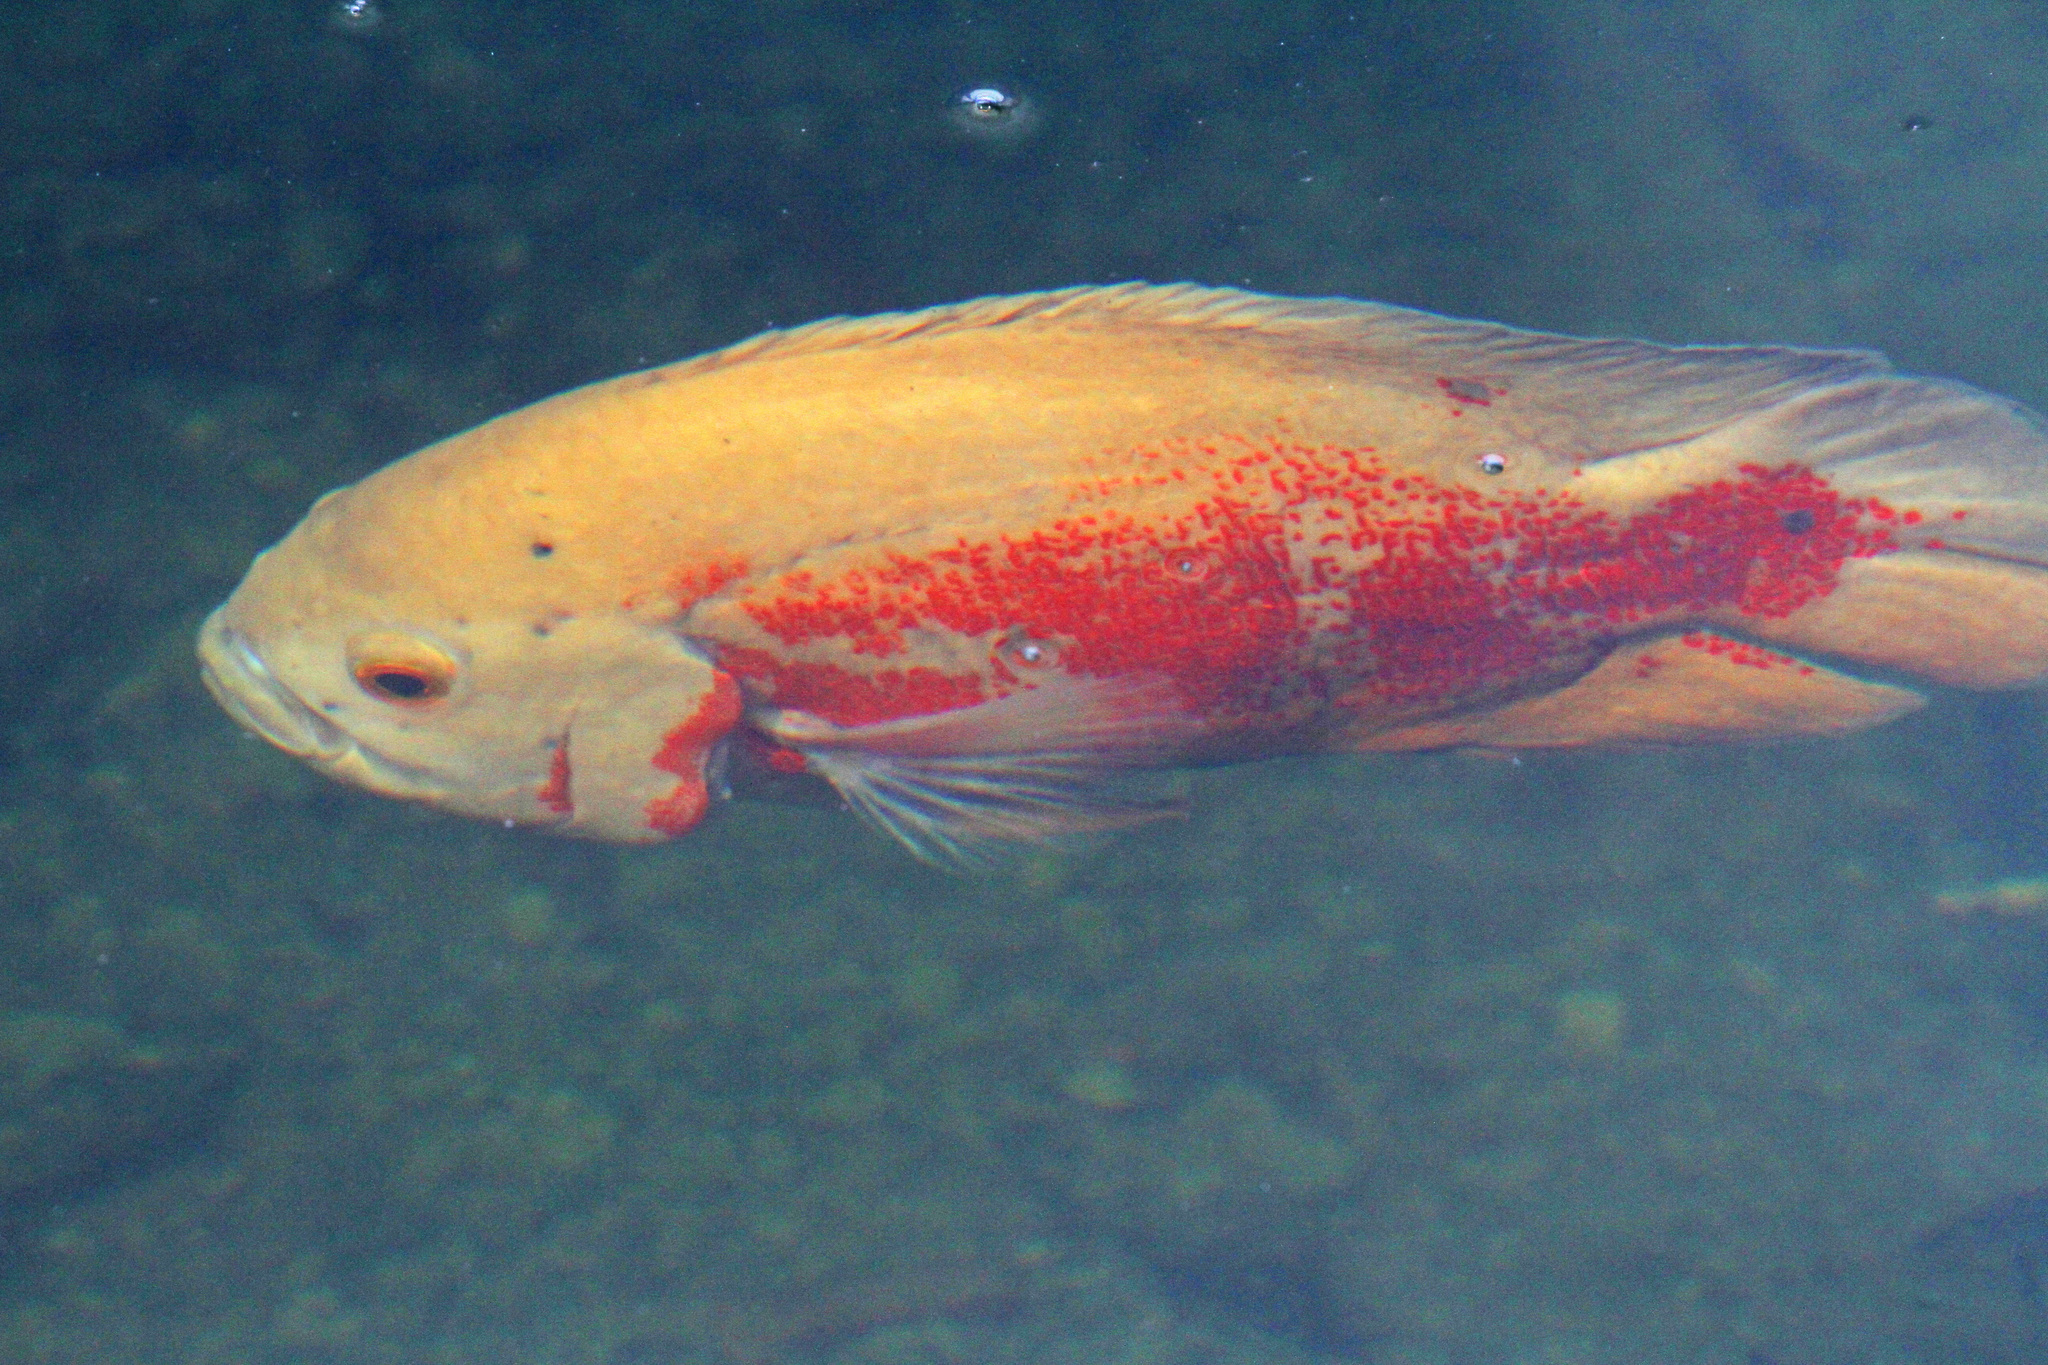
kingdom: Animalia
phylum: Chordata
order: Perciformes
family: Cichlidae
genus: Astronotus
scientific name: Astronotus ocellatus
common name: Oscar
